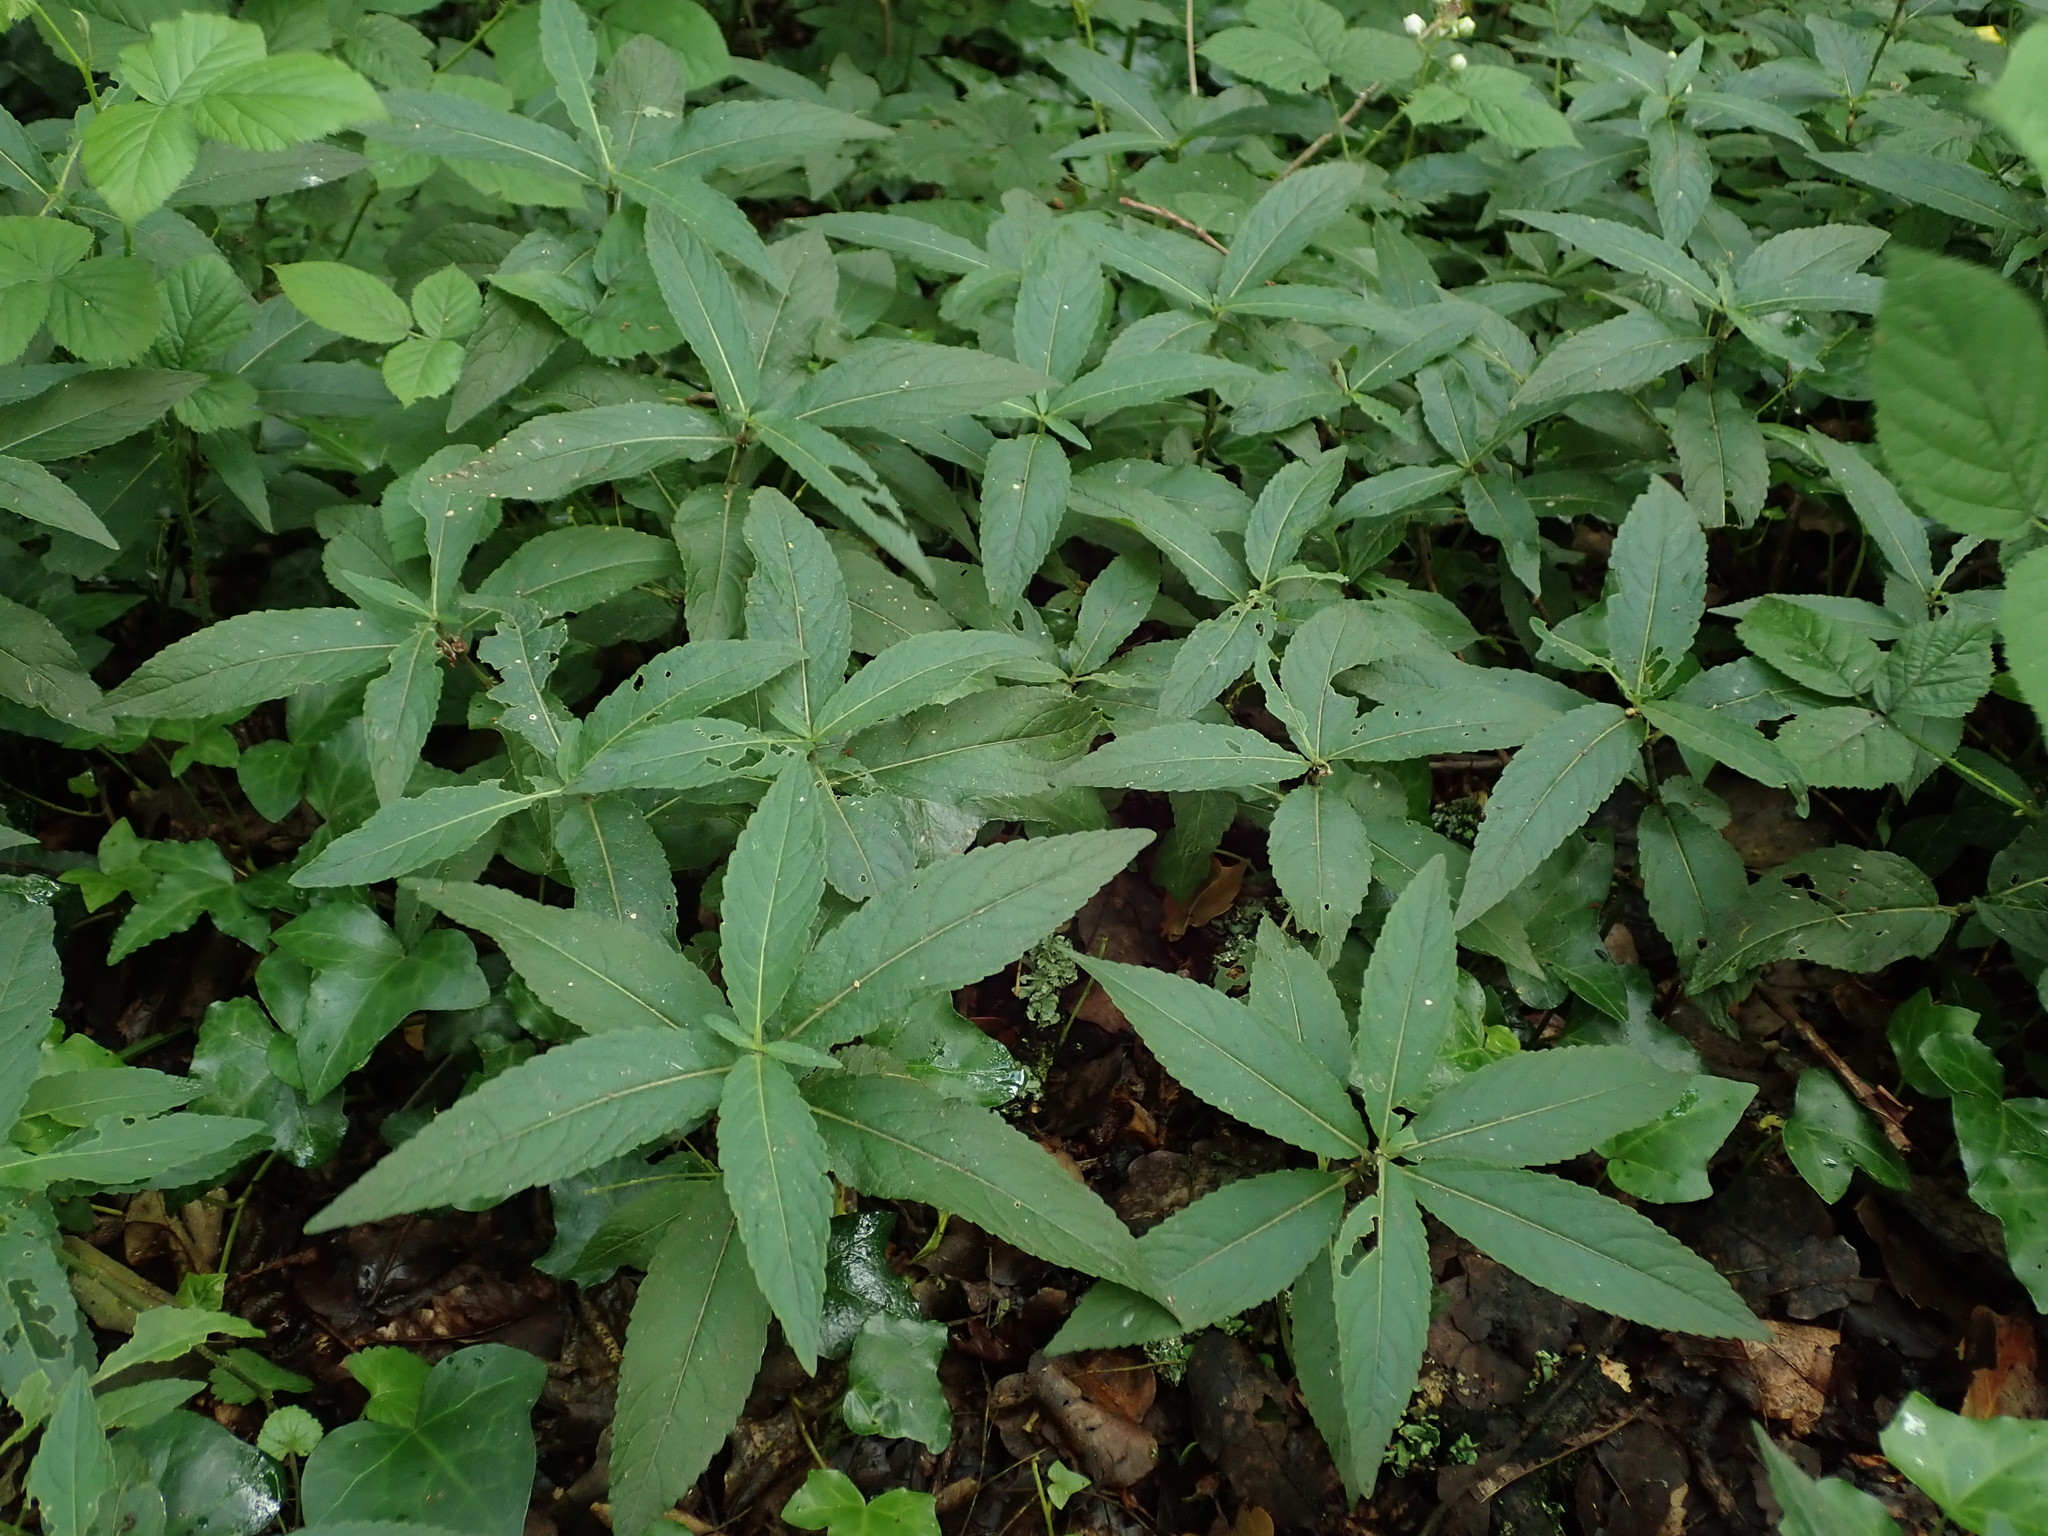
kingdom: Plantae
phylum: Tracheophyta
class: Magnoliopsida
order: Malpighiales
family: Euphorbiaceae
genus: Mercurialis
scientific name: Mercurialis perennis
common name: Dog mercury
